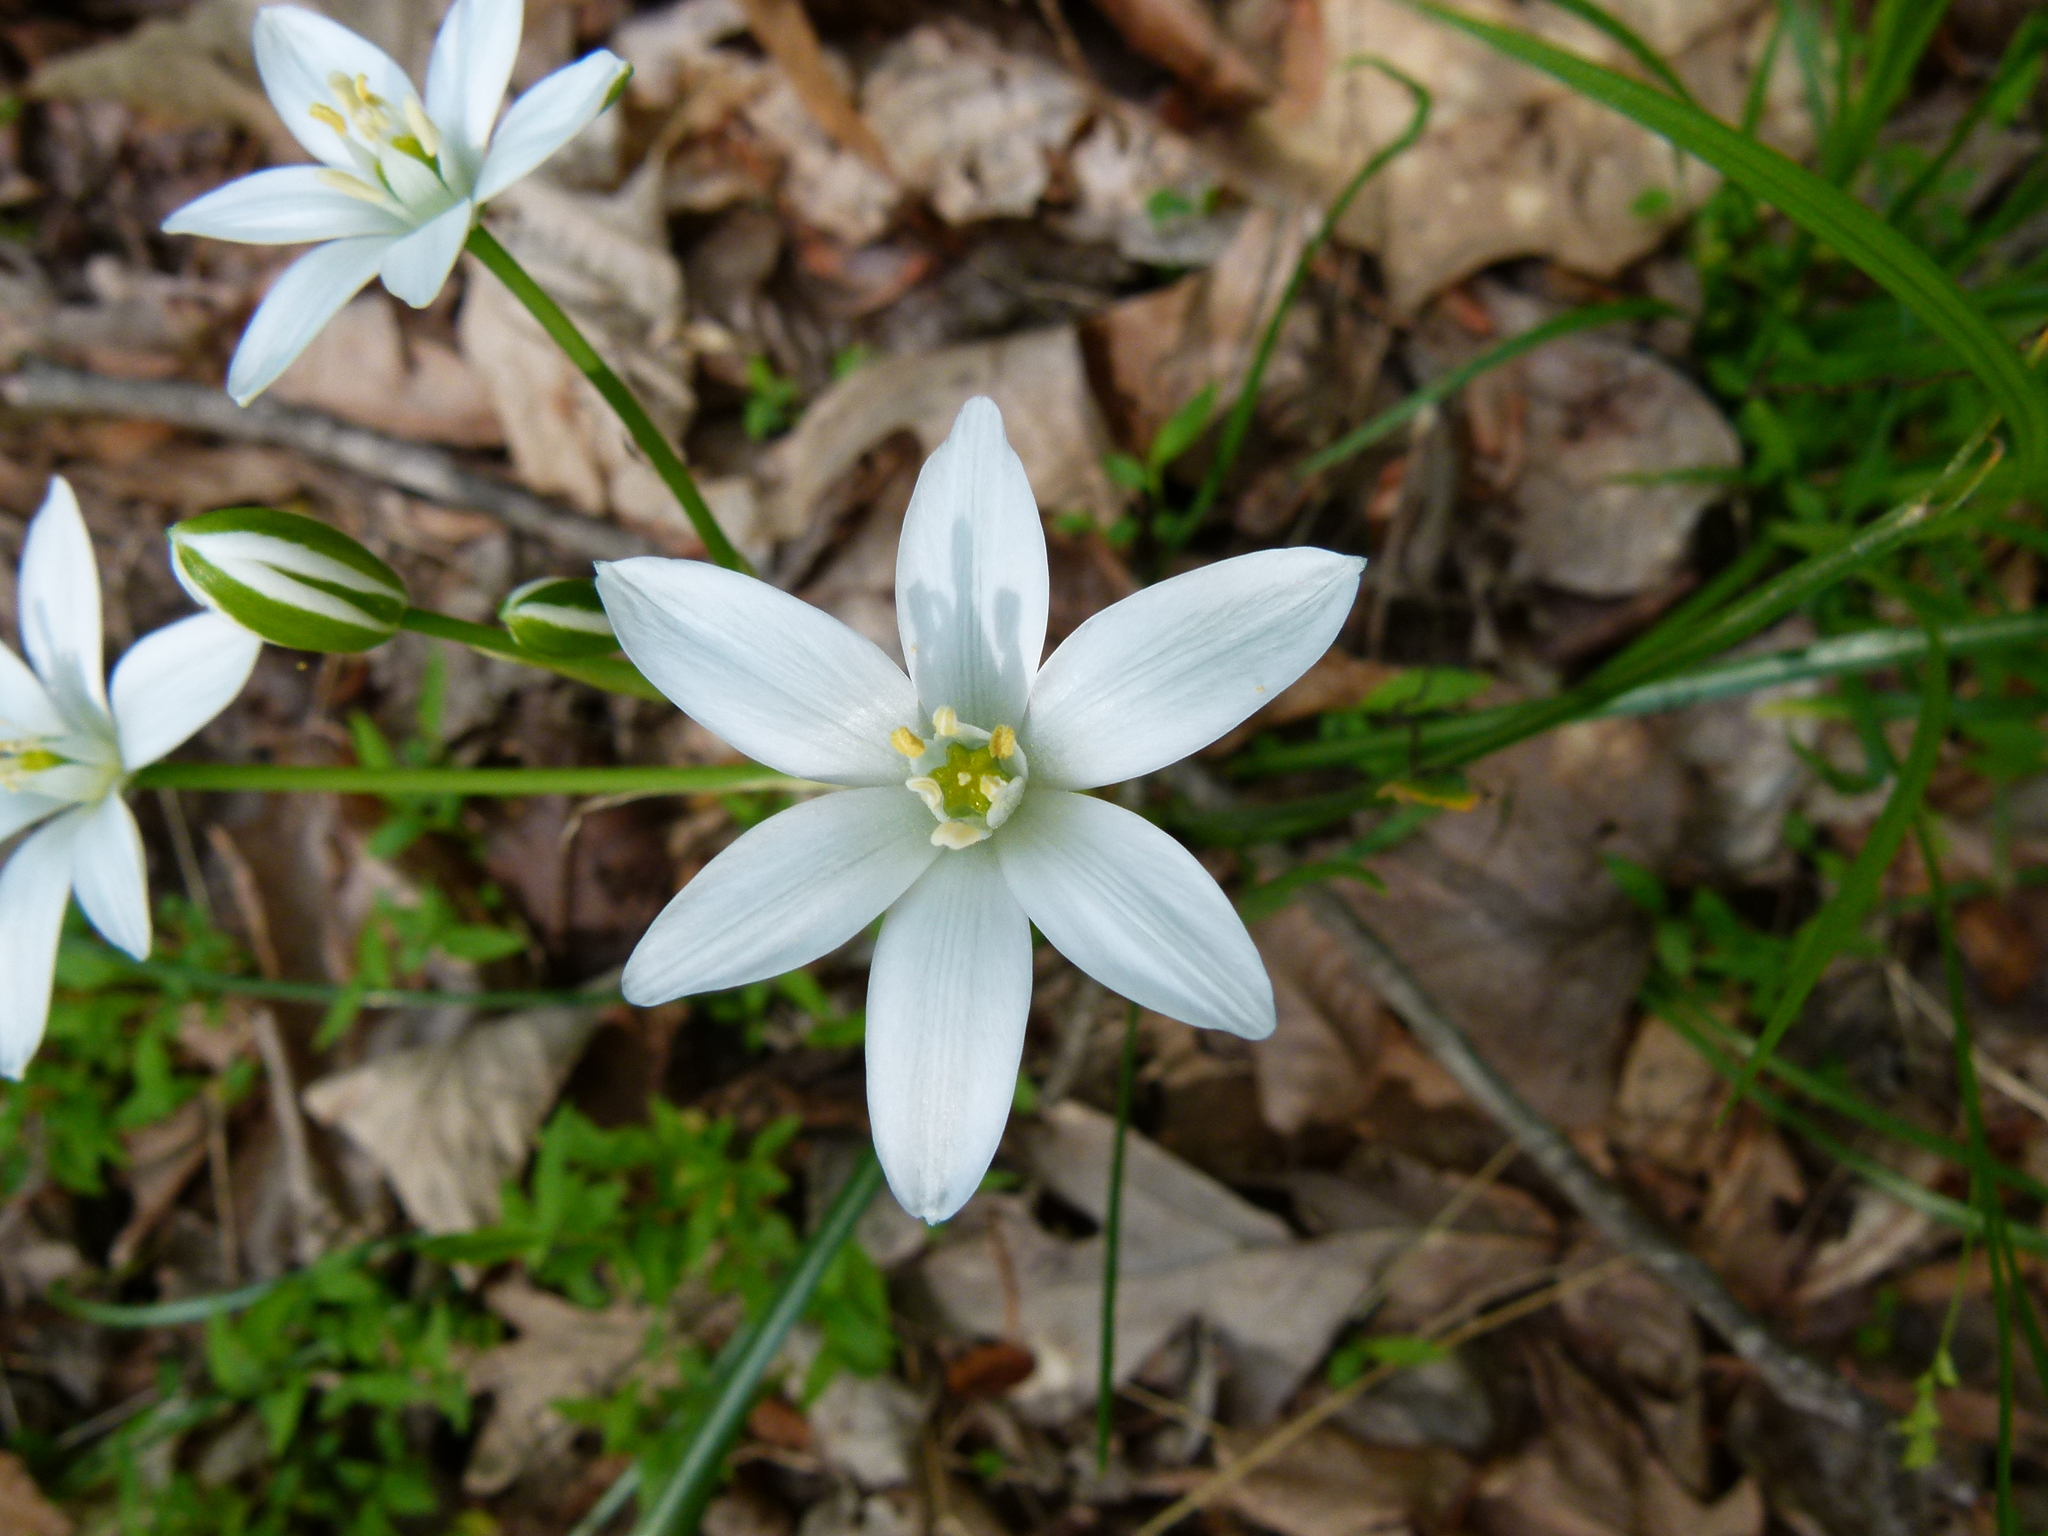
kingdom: Plantae
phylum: Tracheophyta
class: Liliopsida
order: Asparagales
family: Asparagaceae
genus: Ornithogalum
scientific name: Ornithogalum umbellatum
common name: Garden star-of-bethlehem
